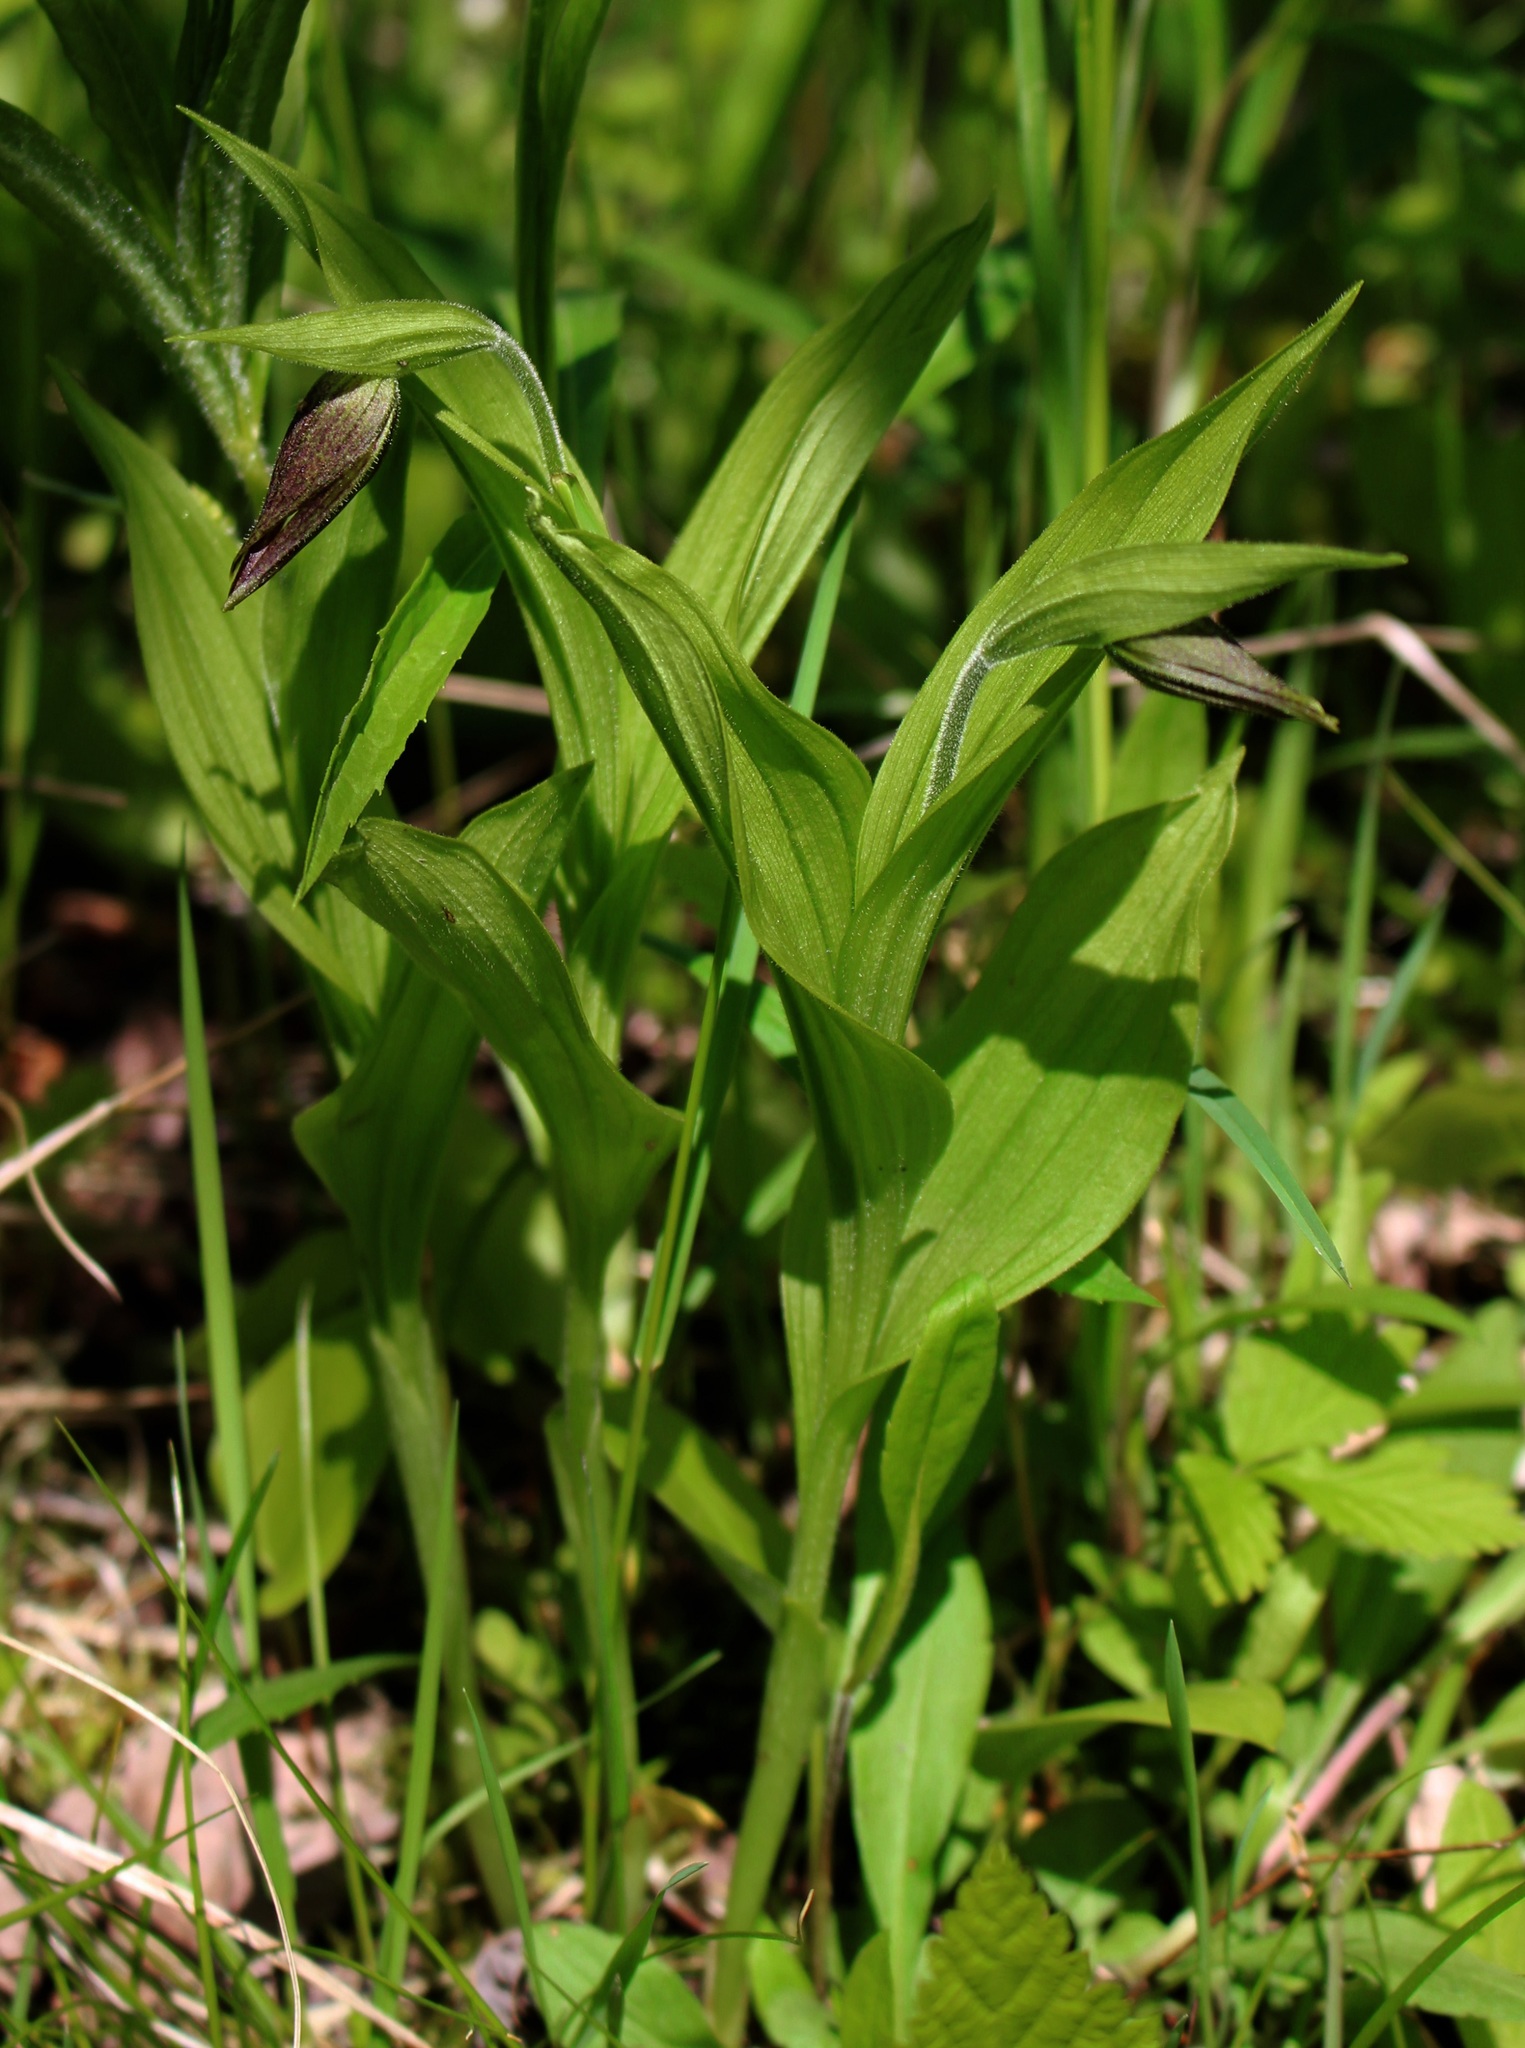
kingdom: Plantae
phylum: Tracheophyta
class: Liliopsida
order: Asparagales
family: Orchidaceae
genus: Cypripedium
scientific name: Cypripedium parviflorum
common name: American yellow lady's-slipper
